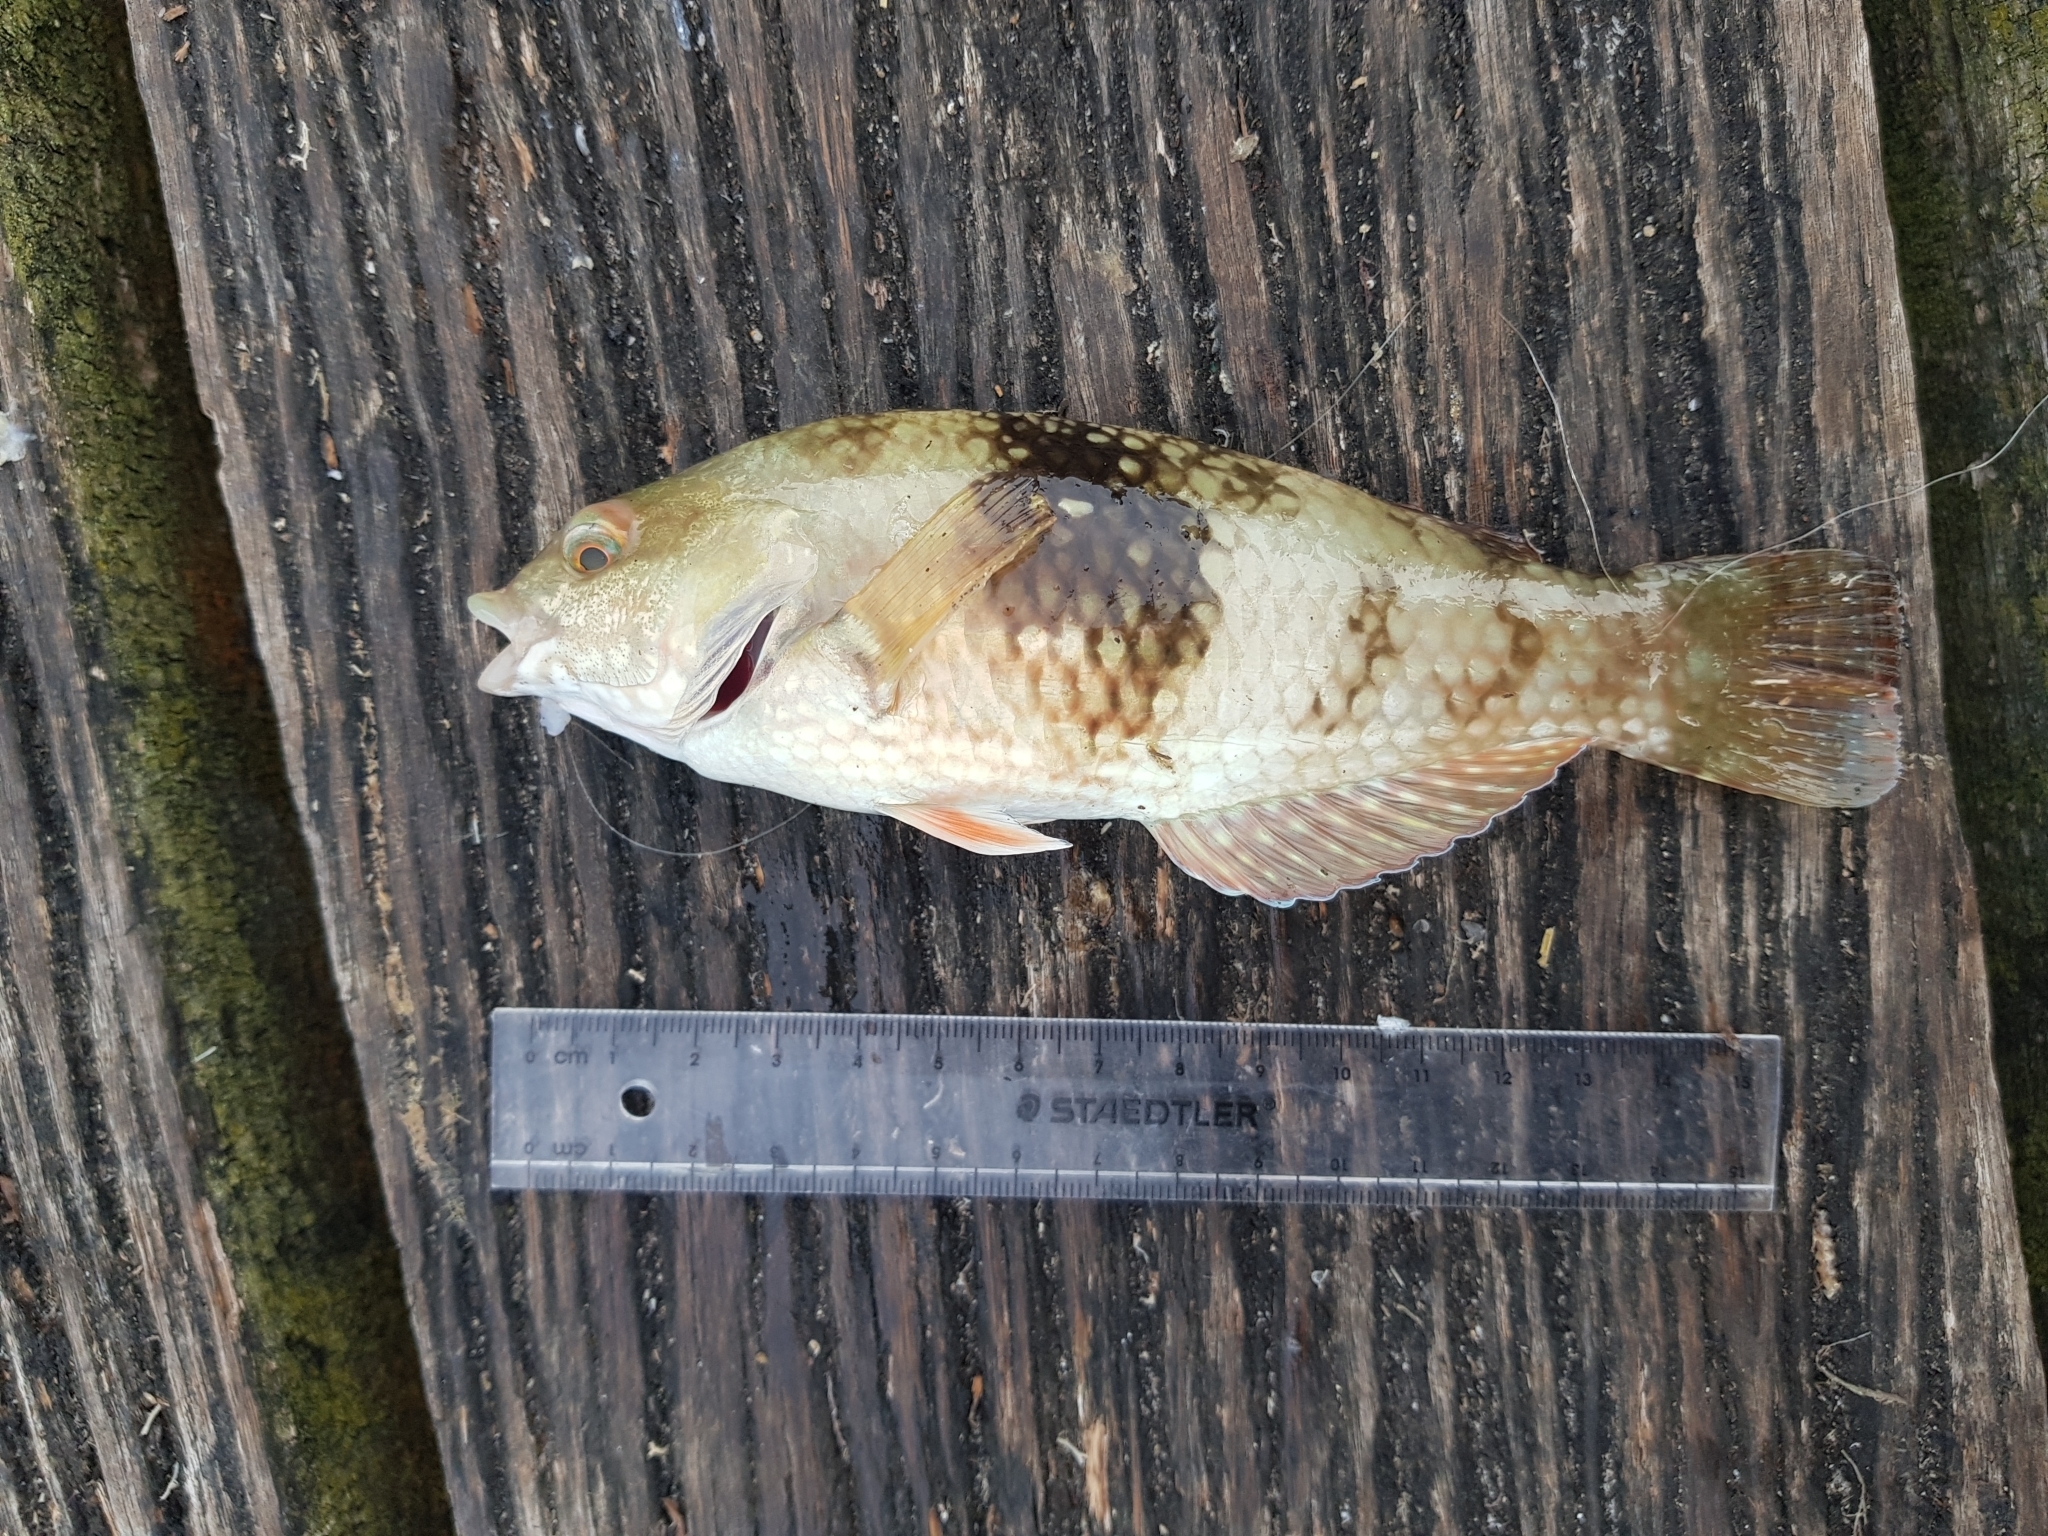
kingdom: Animalia
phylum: Chordata
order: Perciformes
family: Labridae
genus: Notolabrus
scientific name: Notolabrus tetricus
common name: Blue-throated parrotfish
